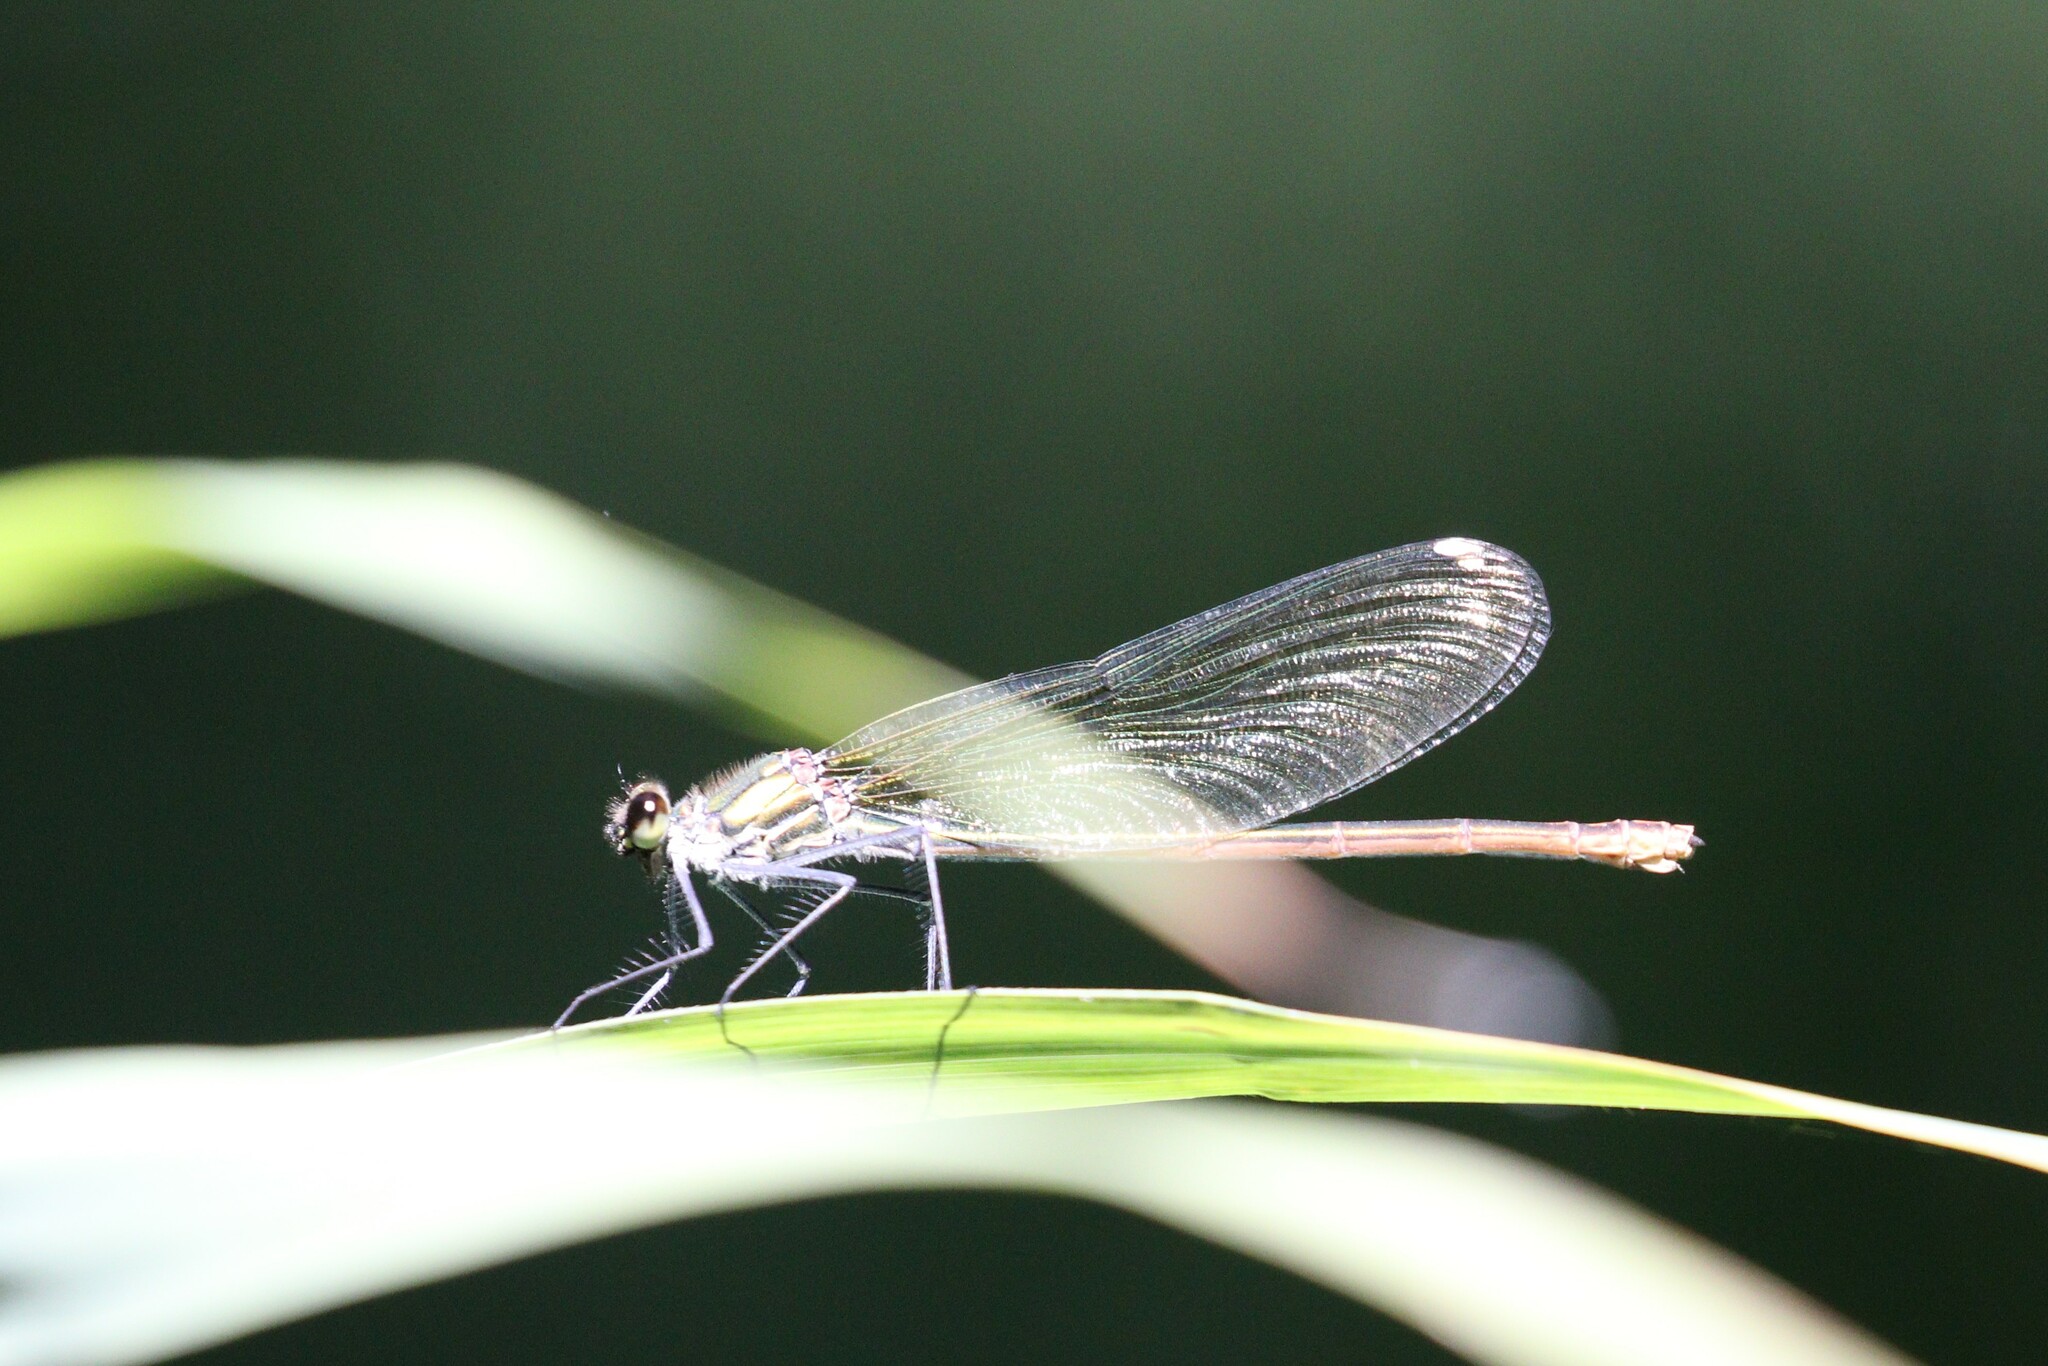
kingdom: Animalia
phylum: Arthropoda
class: Insecta
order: Odonata
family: Calopterygidae
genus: Calopteryx
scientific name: Calopteryx splendens
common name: Banded demoiselle
